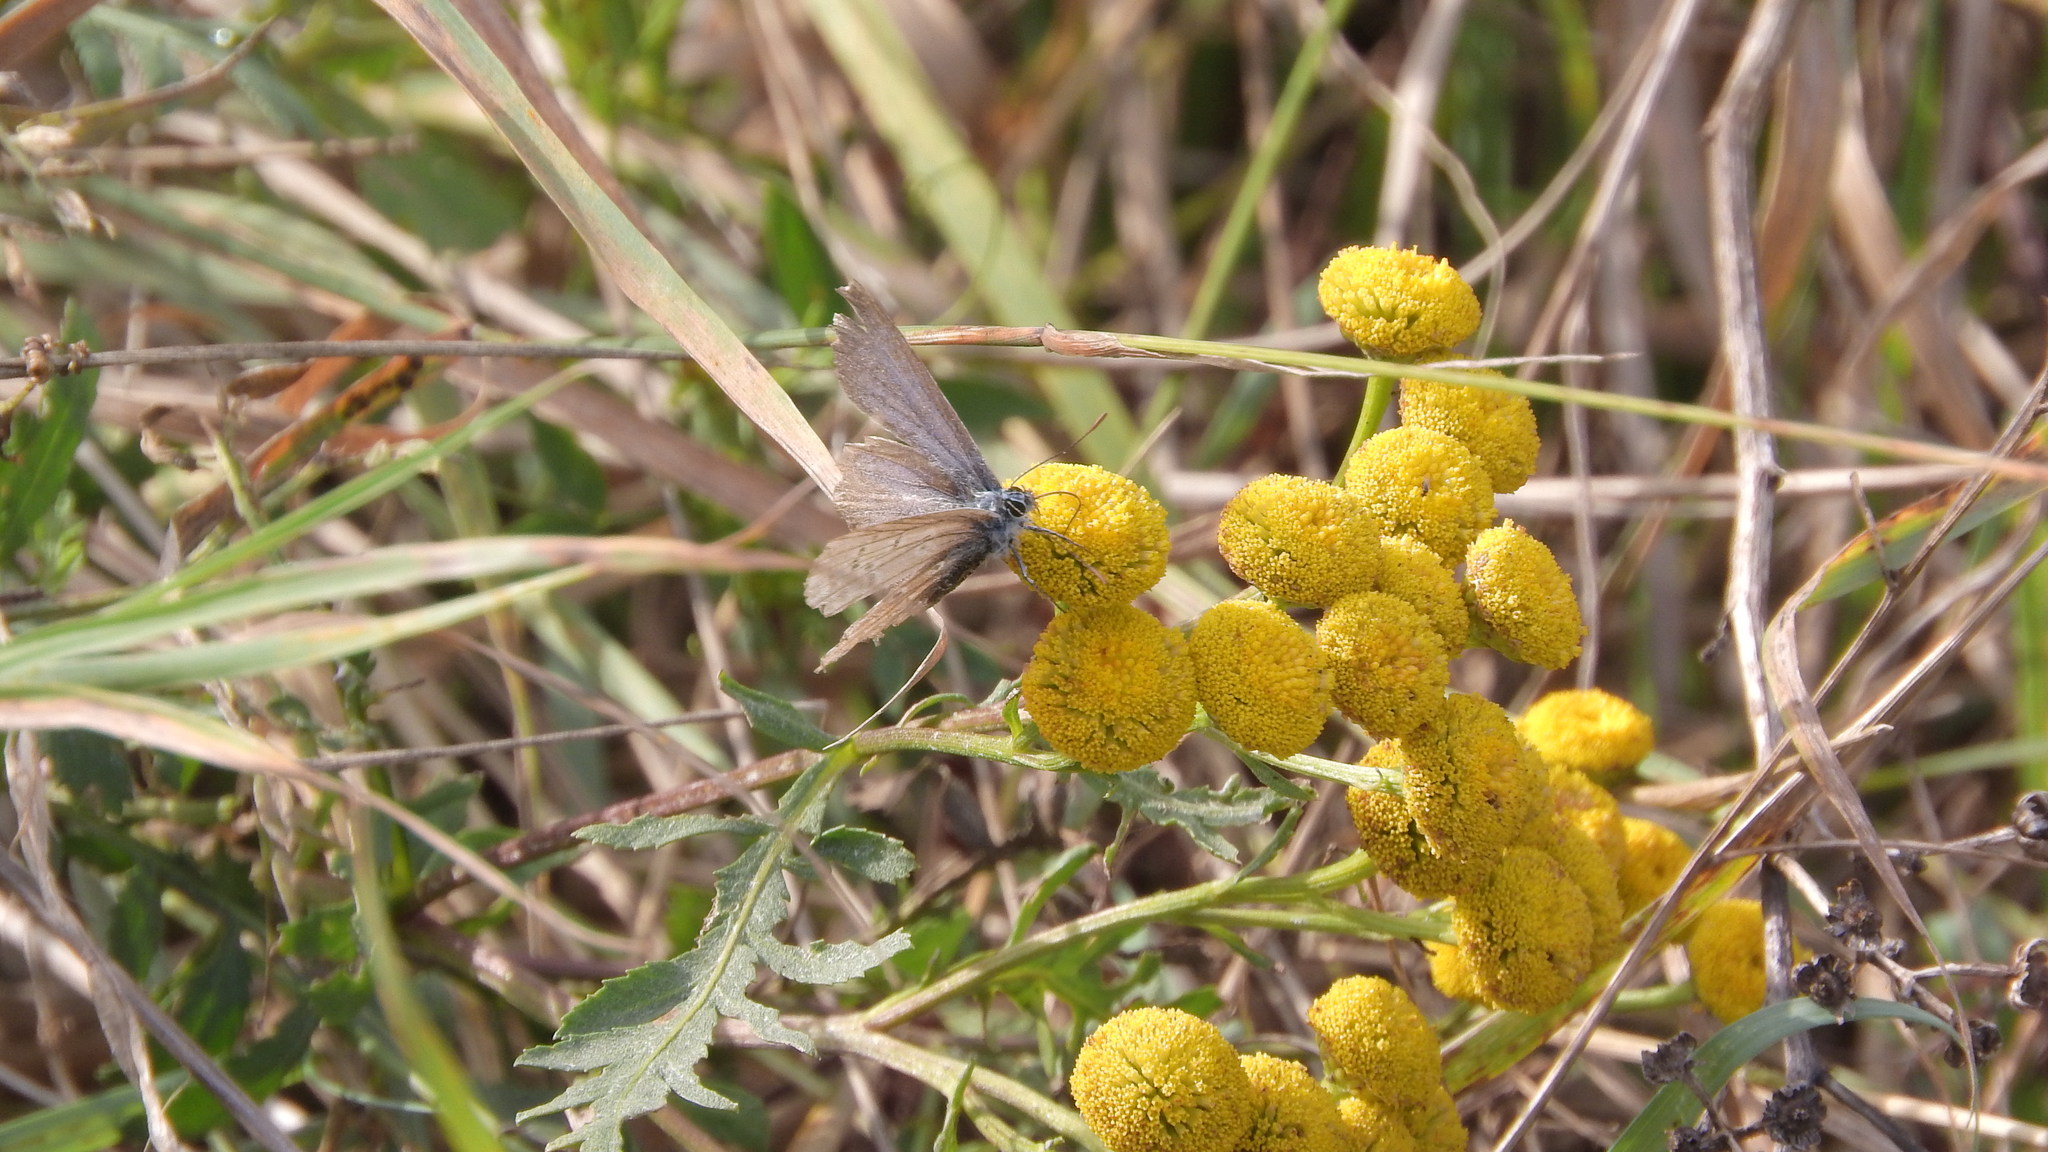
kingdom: Animalia
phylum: Arthropoda
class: Insecta
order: Lepidoptera
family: Lycaenidae
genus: Polyommatus
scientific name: Polyommatus icarus
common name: Common blue
